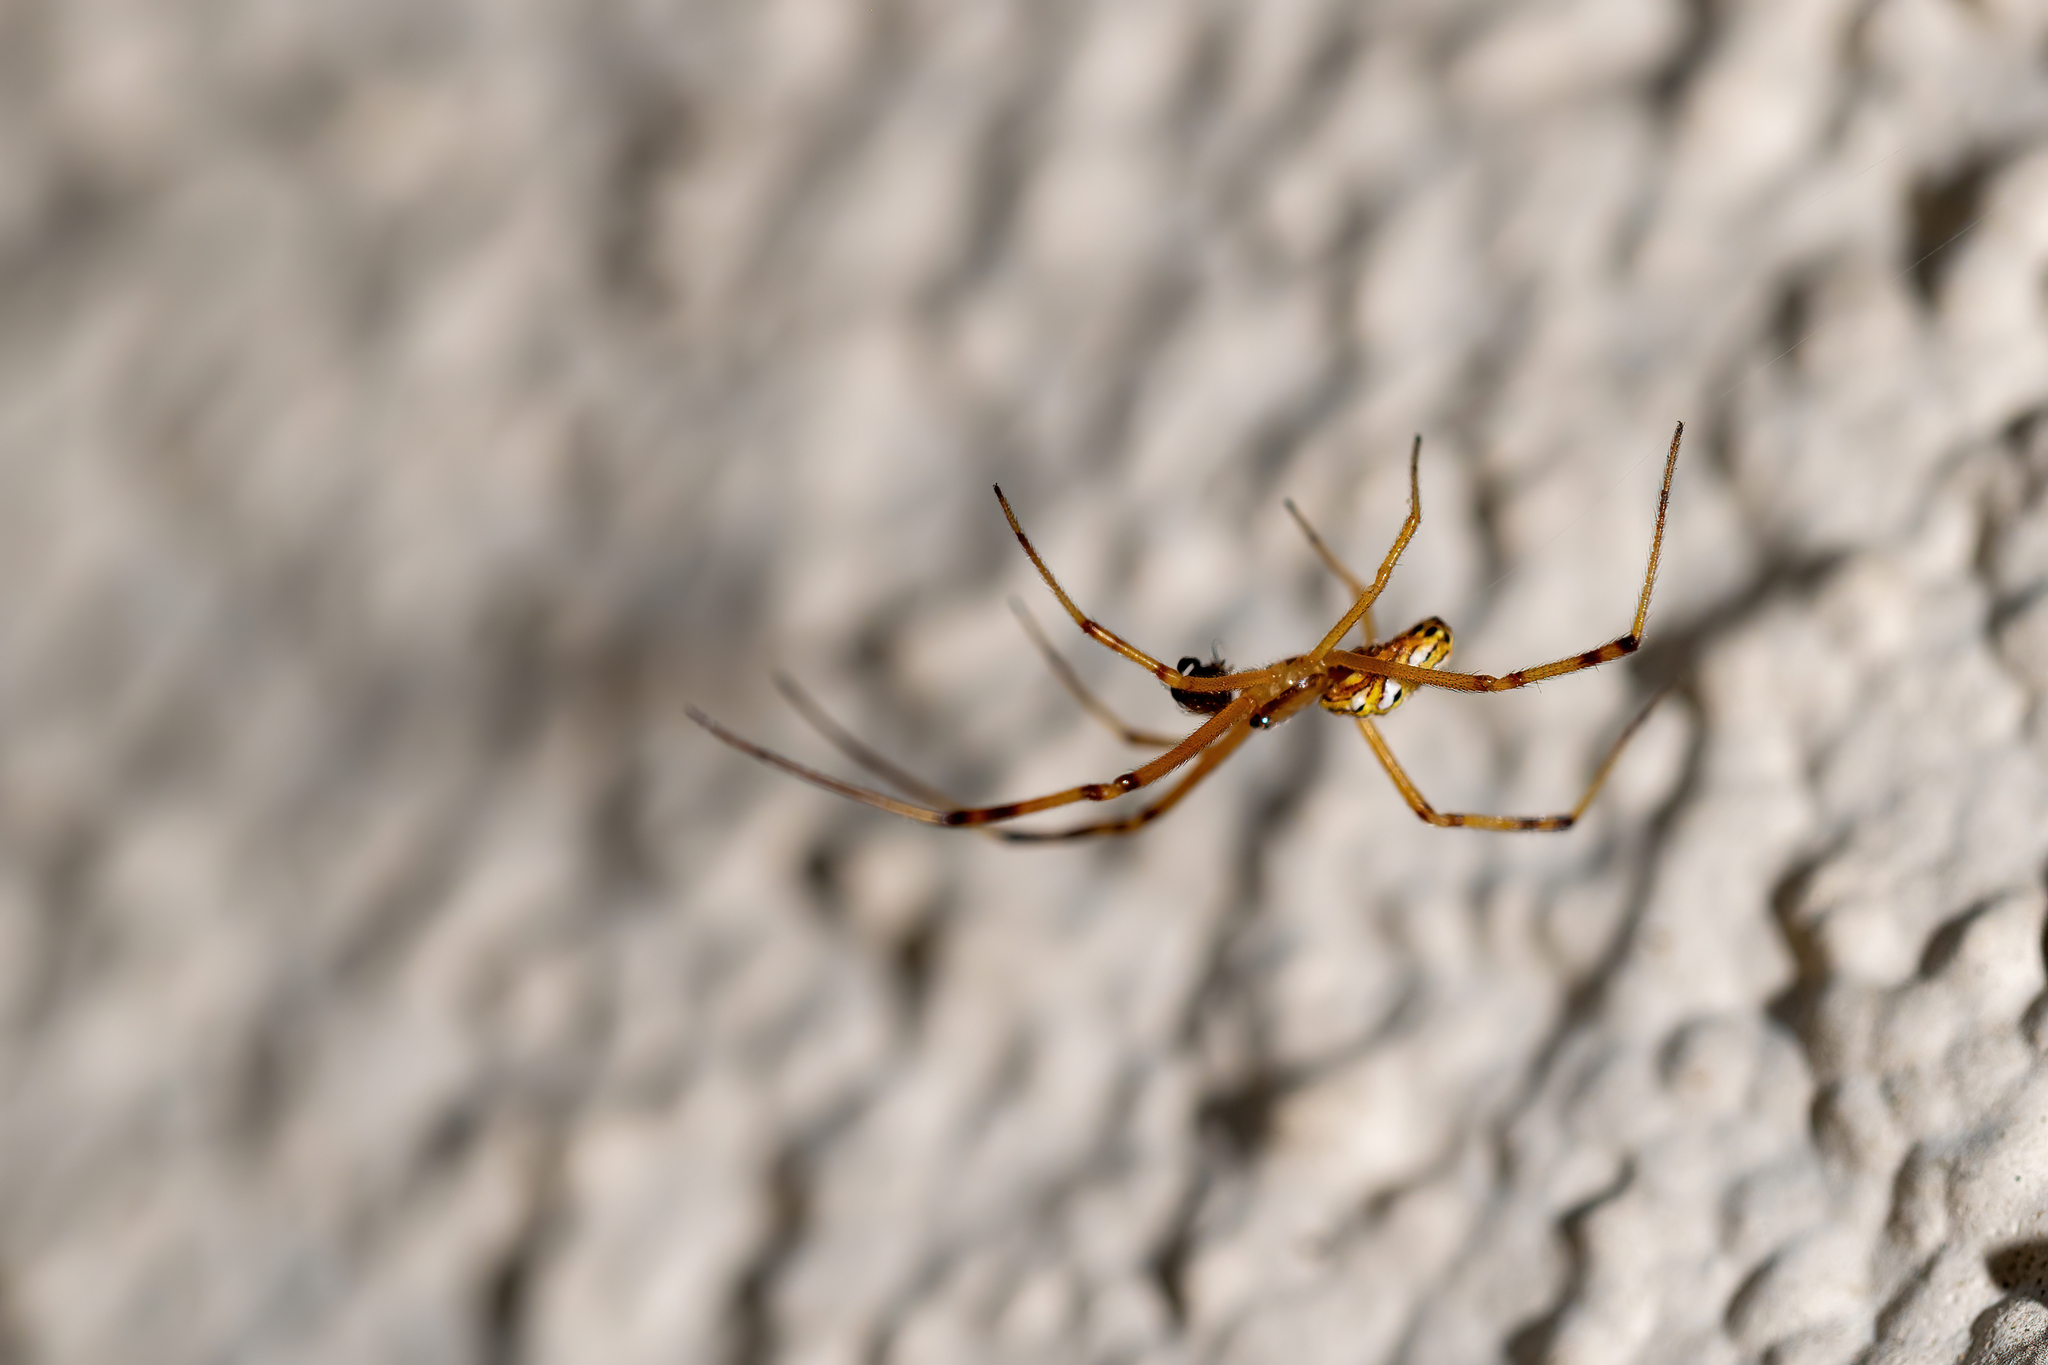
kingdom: Animalia
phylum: Arthropoda
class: Arachnida
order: Araneae
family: Theridiidae
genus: Latrodectus
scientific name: Latrodectus hesperus
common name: Western black widow
